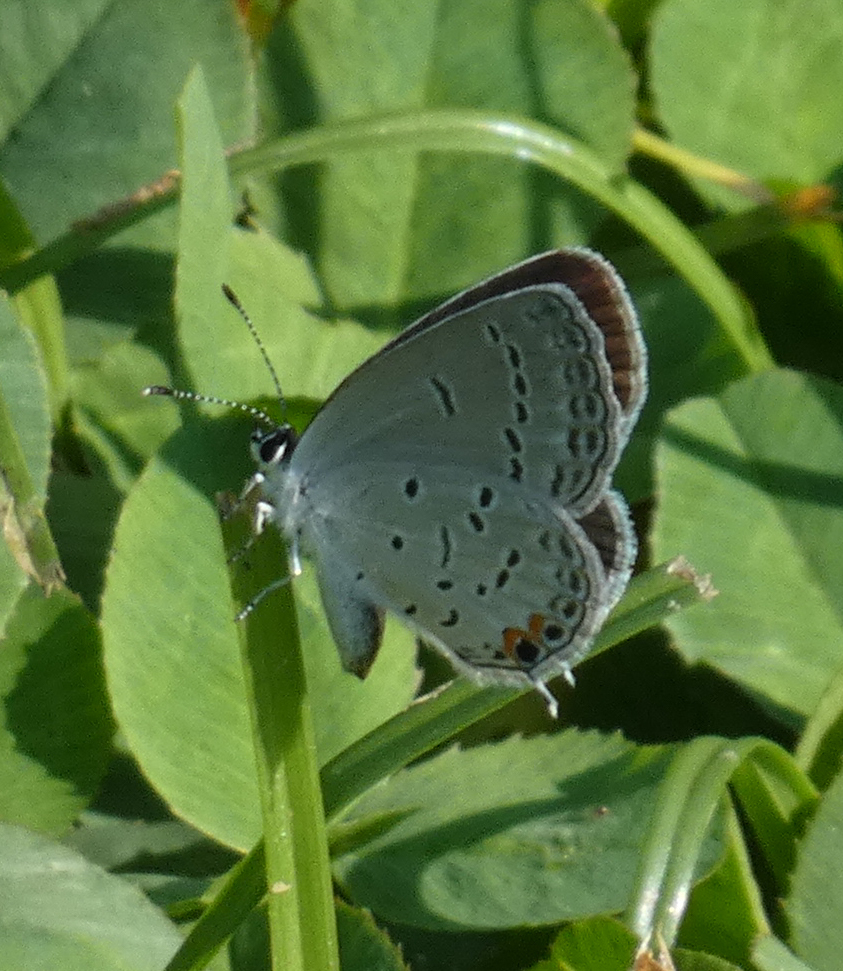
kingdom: Animalia
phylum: Arthropoda
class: Insecta
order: Lepidoptera
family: Lycaenidae
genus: Elkalyce
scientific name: Elkalyce comyntas
